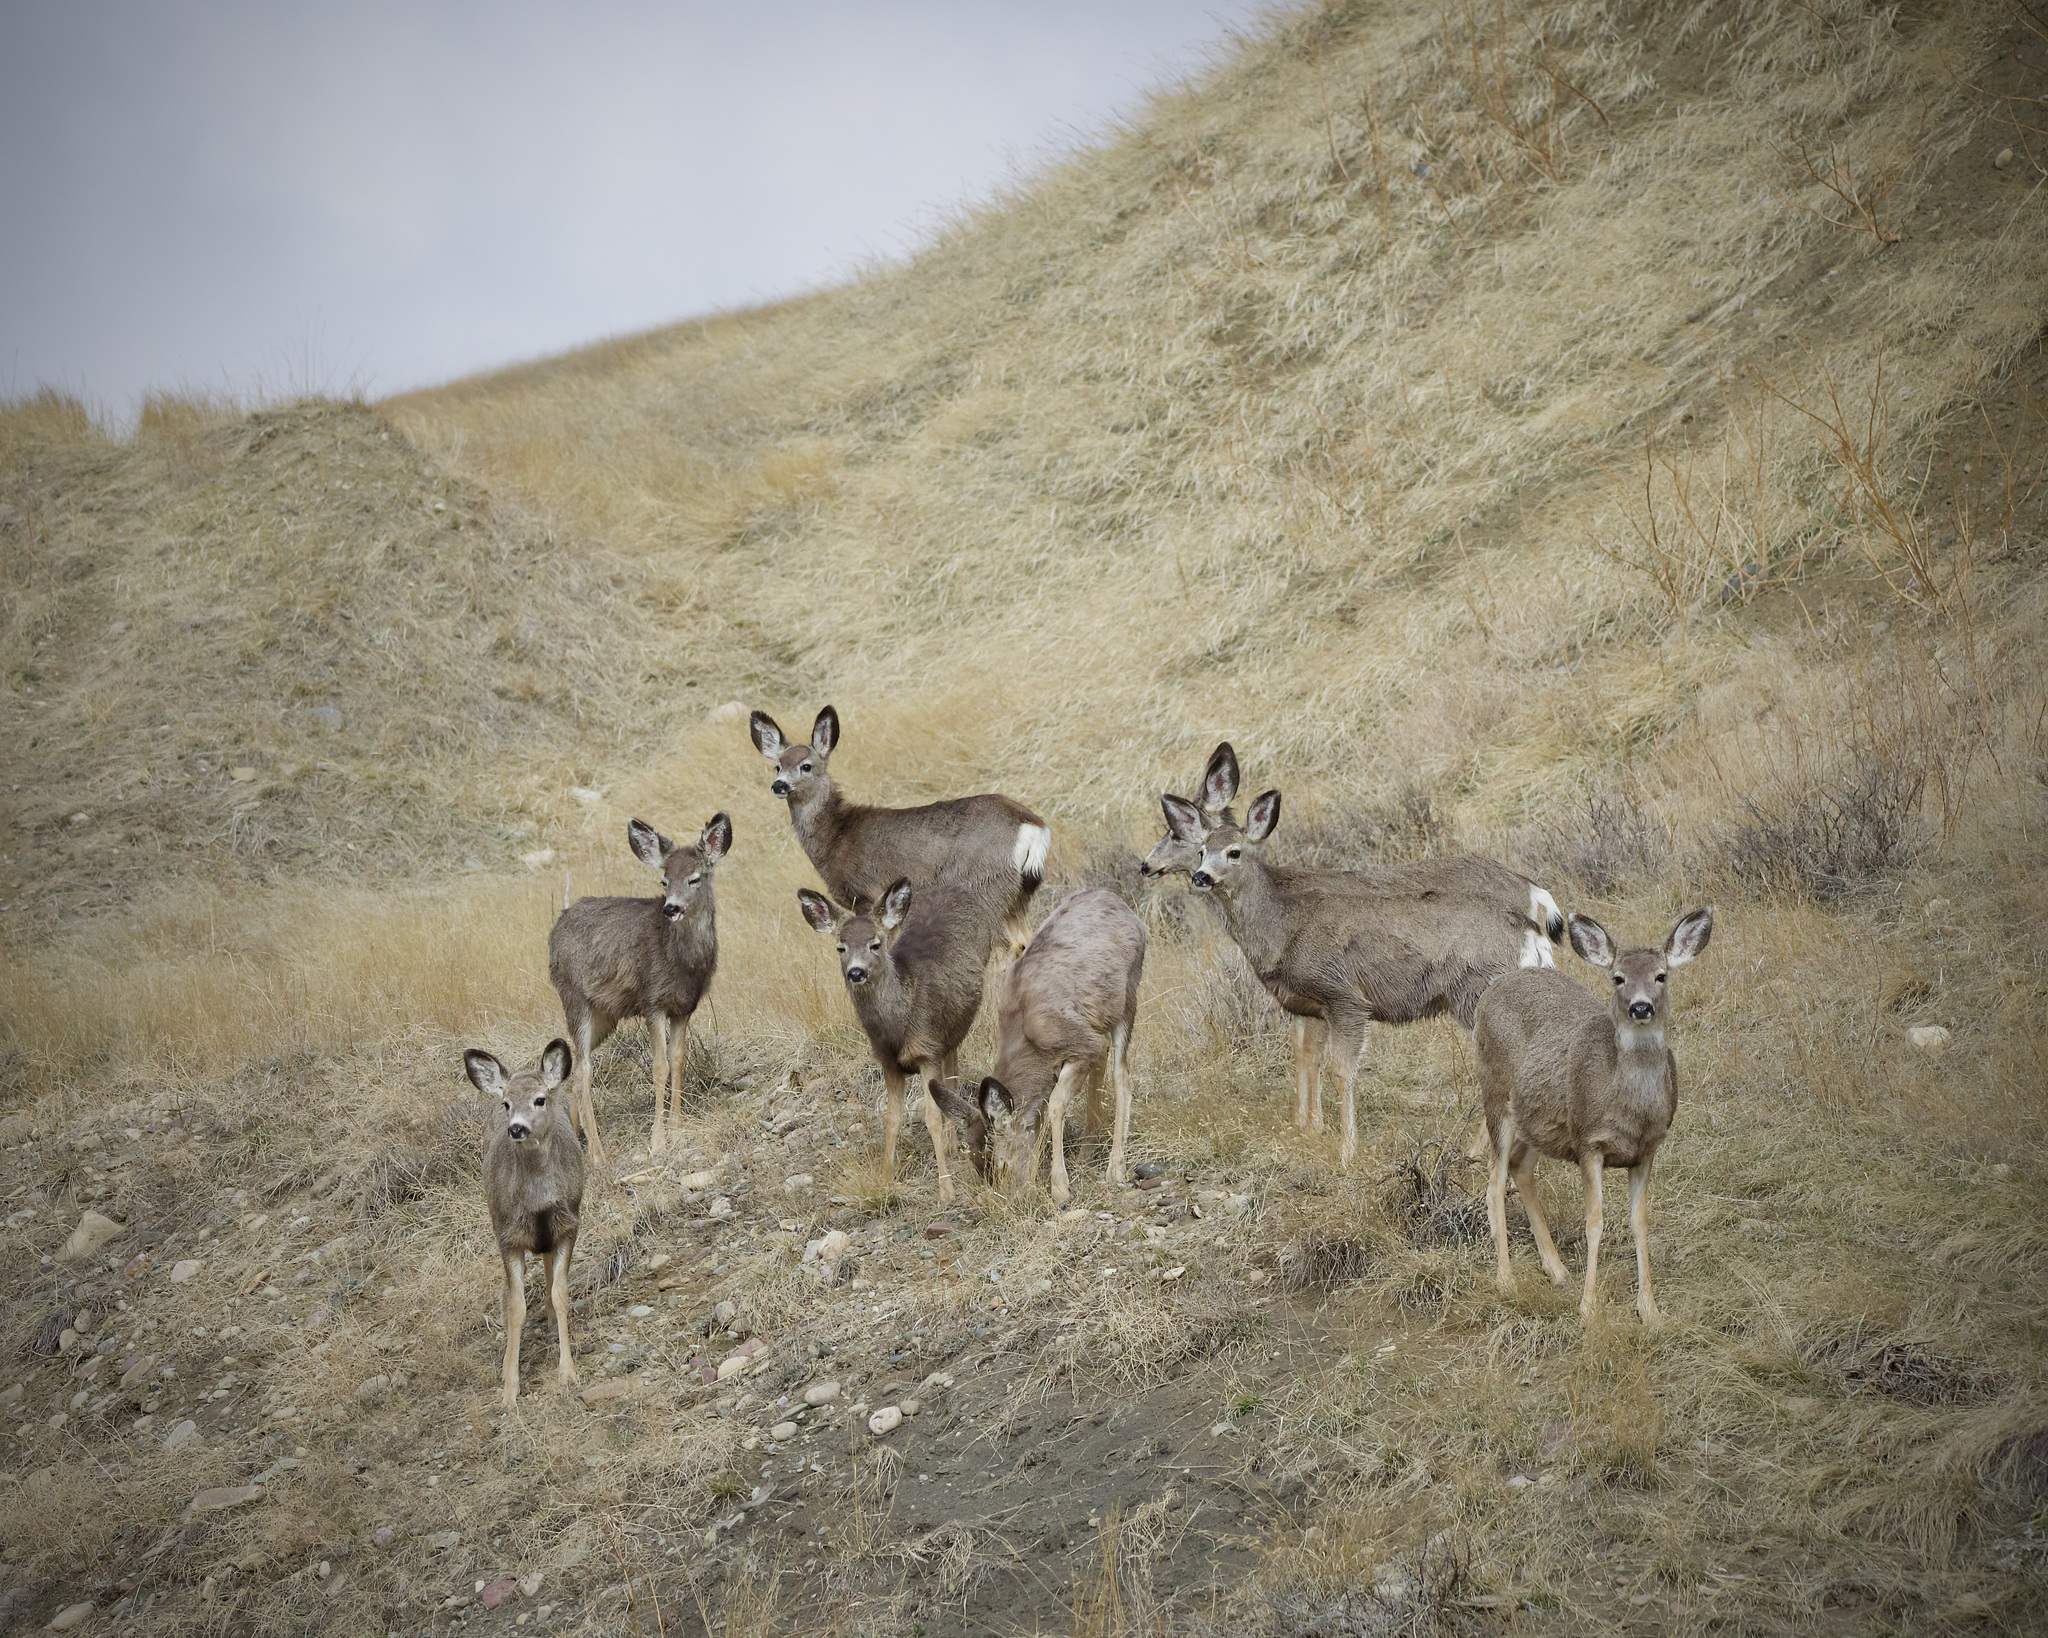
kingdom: Animalia
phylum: Chordata
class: Mammalia
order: Artiodactyla
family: Cervidae
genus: Odocoileus
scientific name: Odocoileus hemionus
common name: Mule deer
